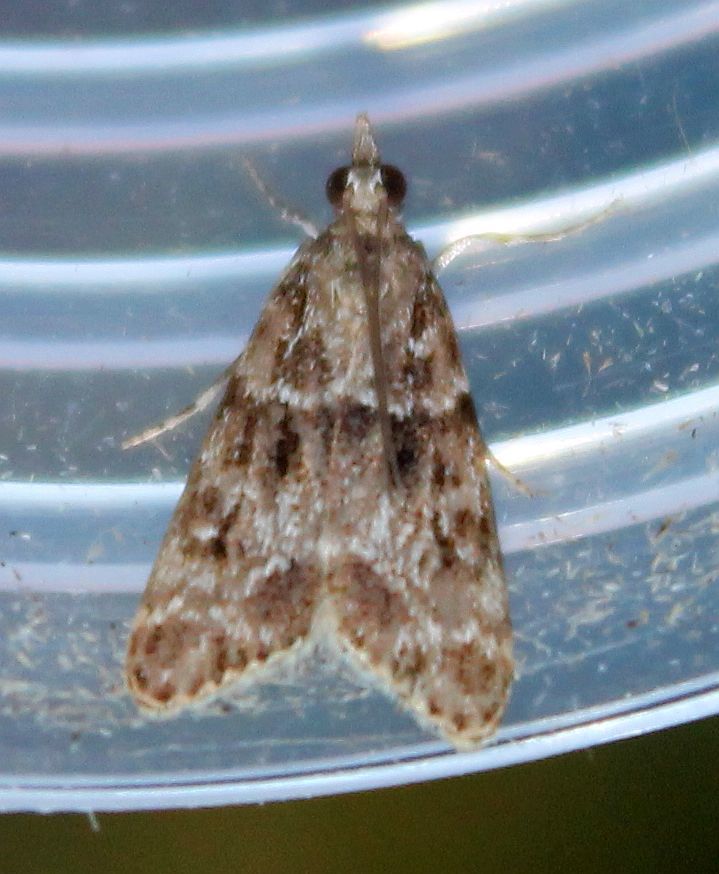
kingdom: Animalia
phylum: Arthropoda
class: Insecta
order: Lepidoptera
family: Crambidae
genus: Eudonia
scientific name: Eudonia mercurella
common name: Small grey
